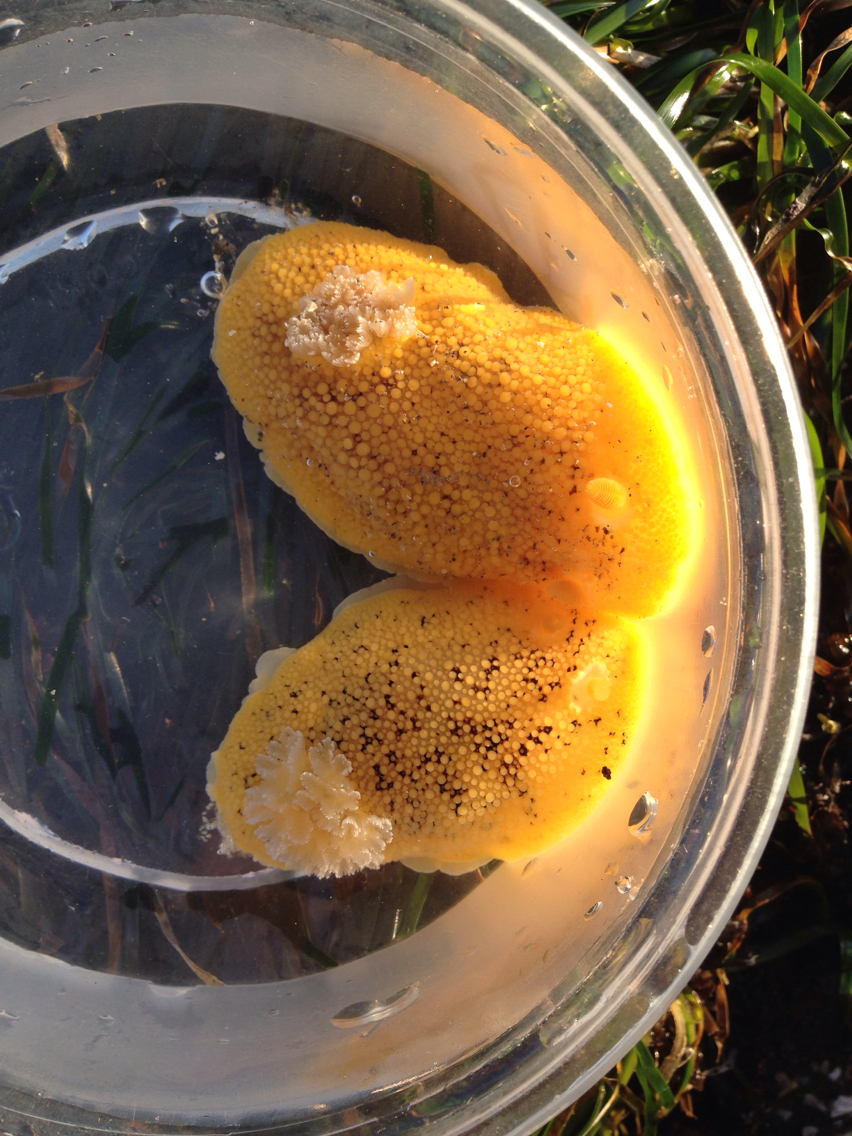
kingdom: Animalia
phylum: Mollusca
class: Gastropoda
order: Nudibranchia
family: Discodorididae
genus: Peltodoris
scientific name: Peltodoris nobilis
